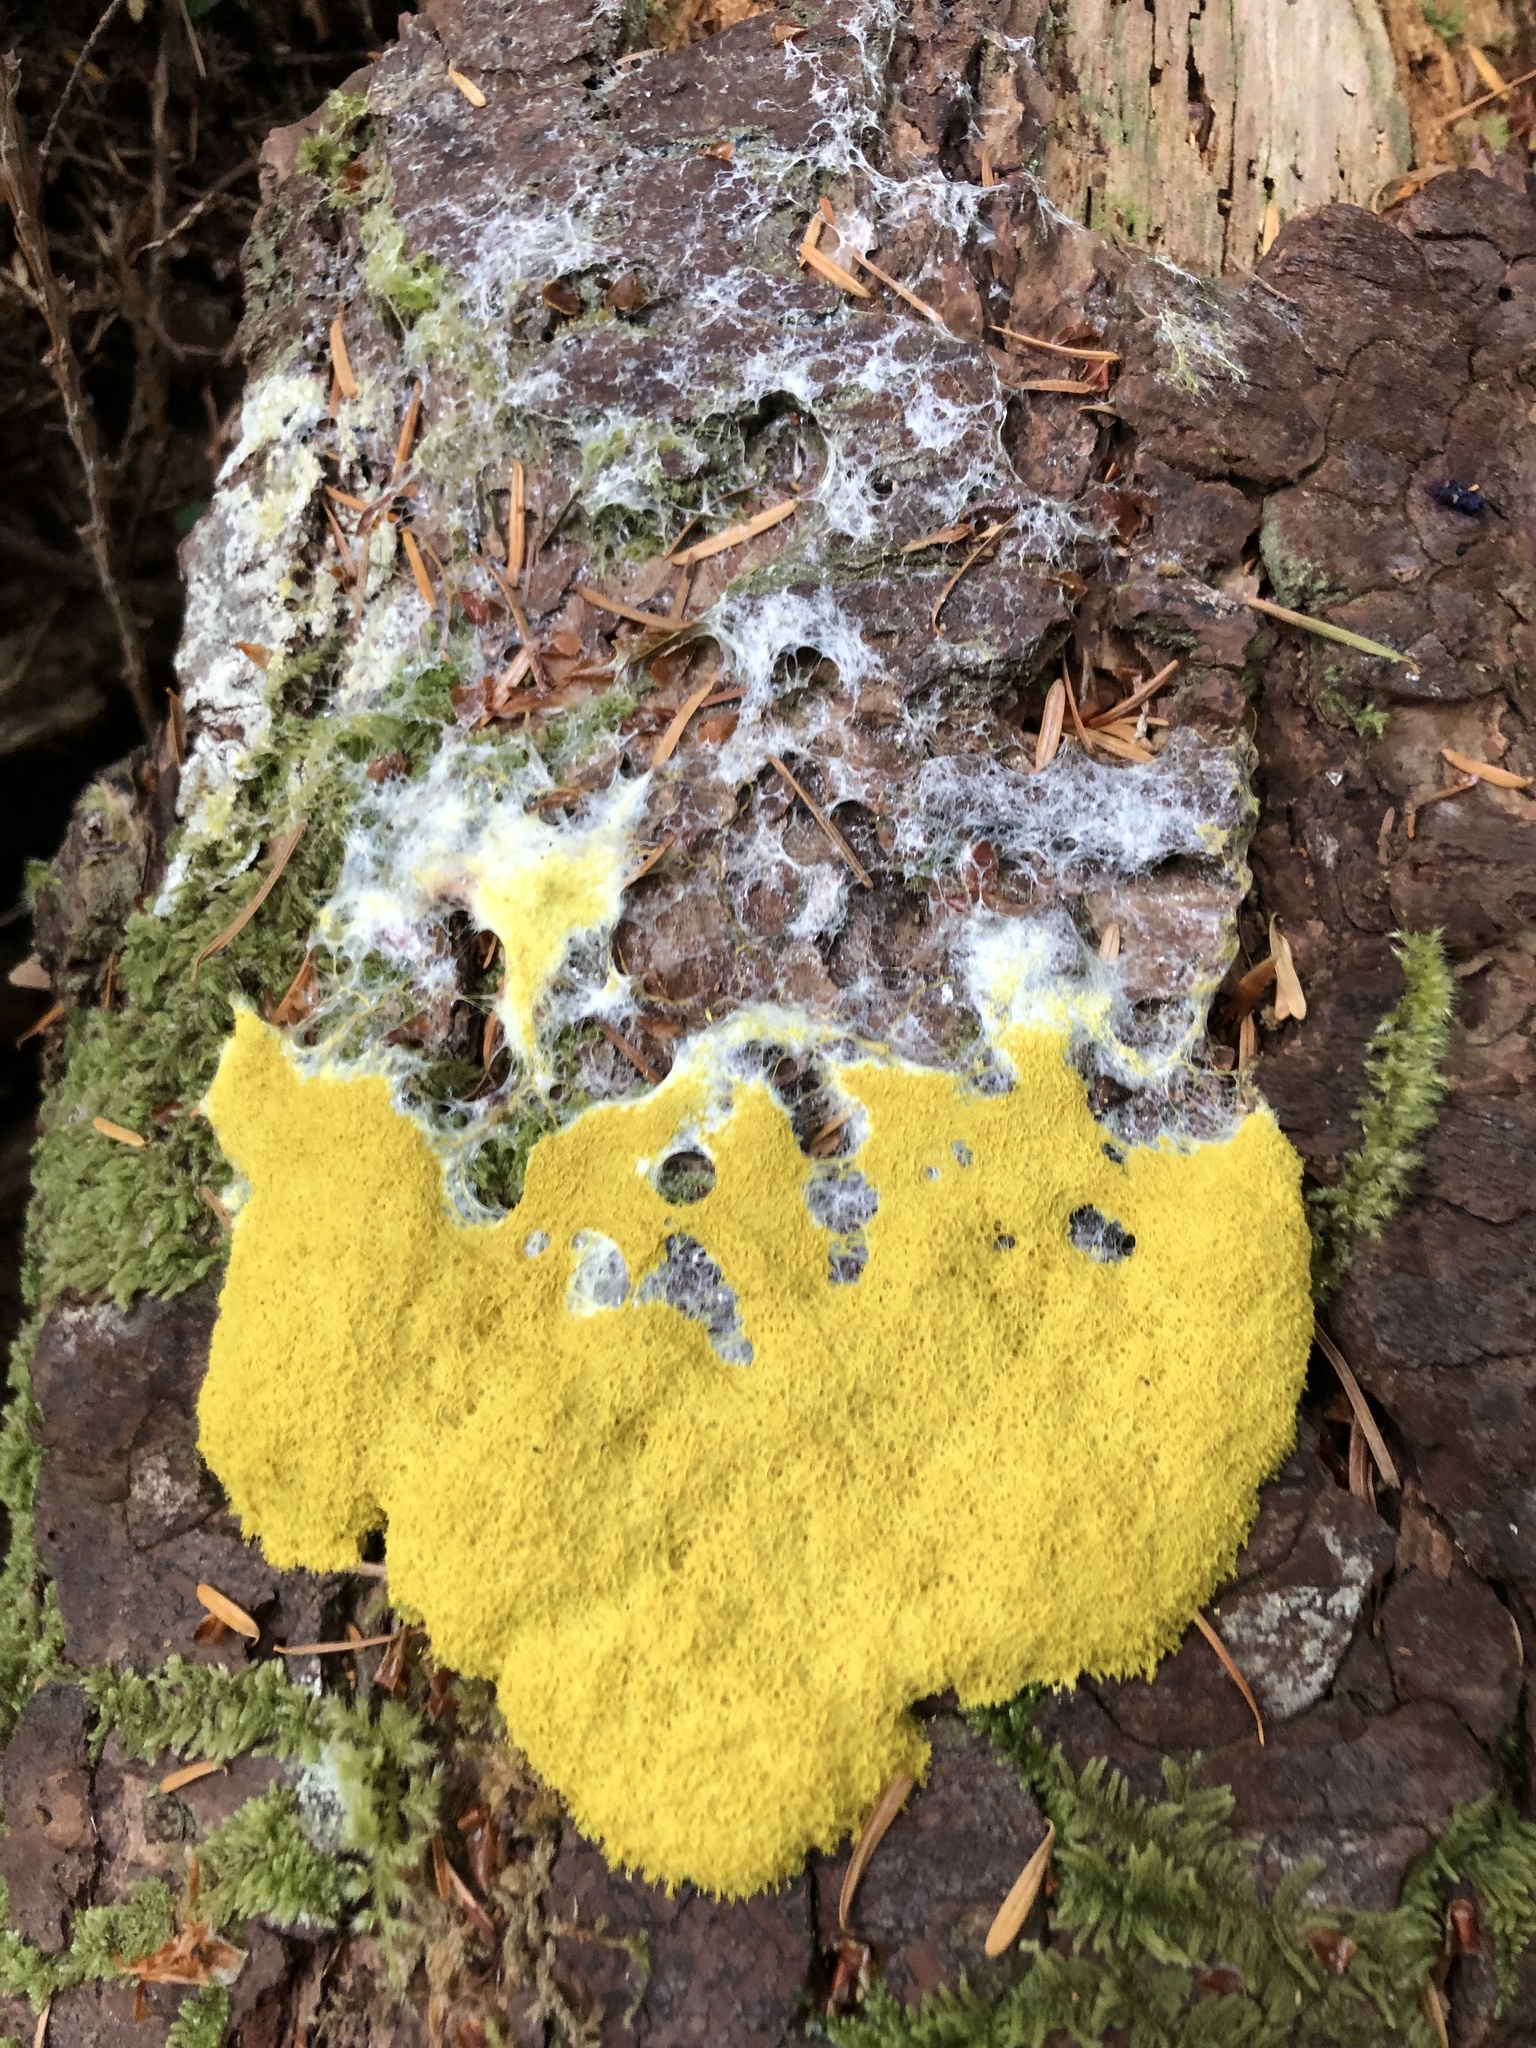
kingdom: Protozoa
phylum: Mycetozoa
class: Myxomycetes
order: Physarales
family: Physaraceae
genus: Fuligo
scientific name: Fuligo septica
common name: Dog vomit slime mold
